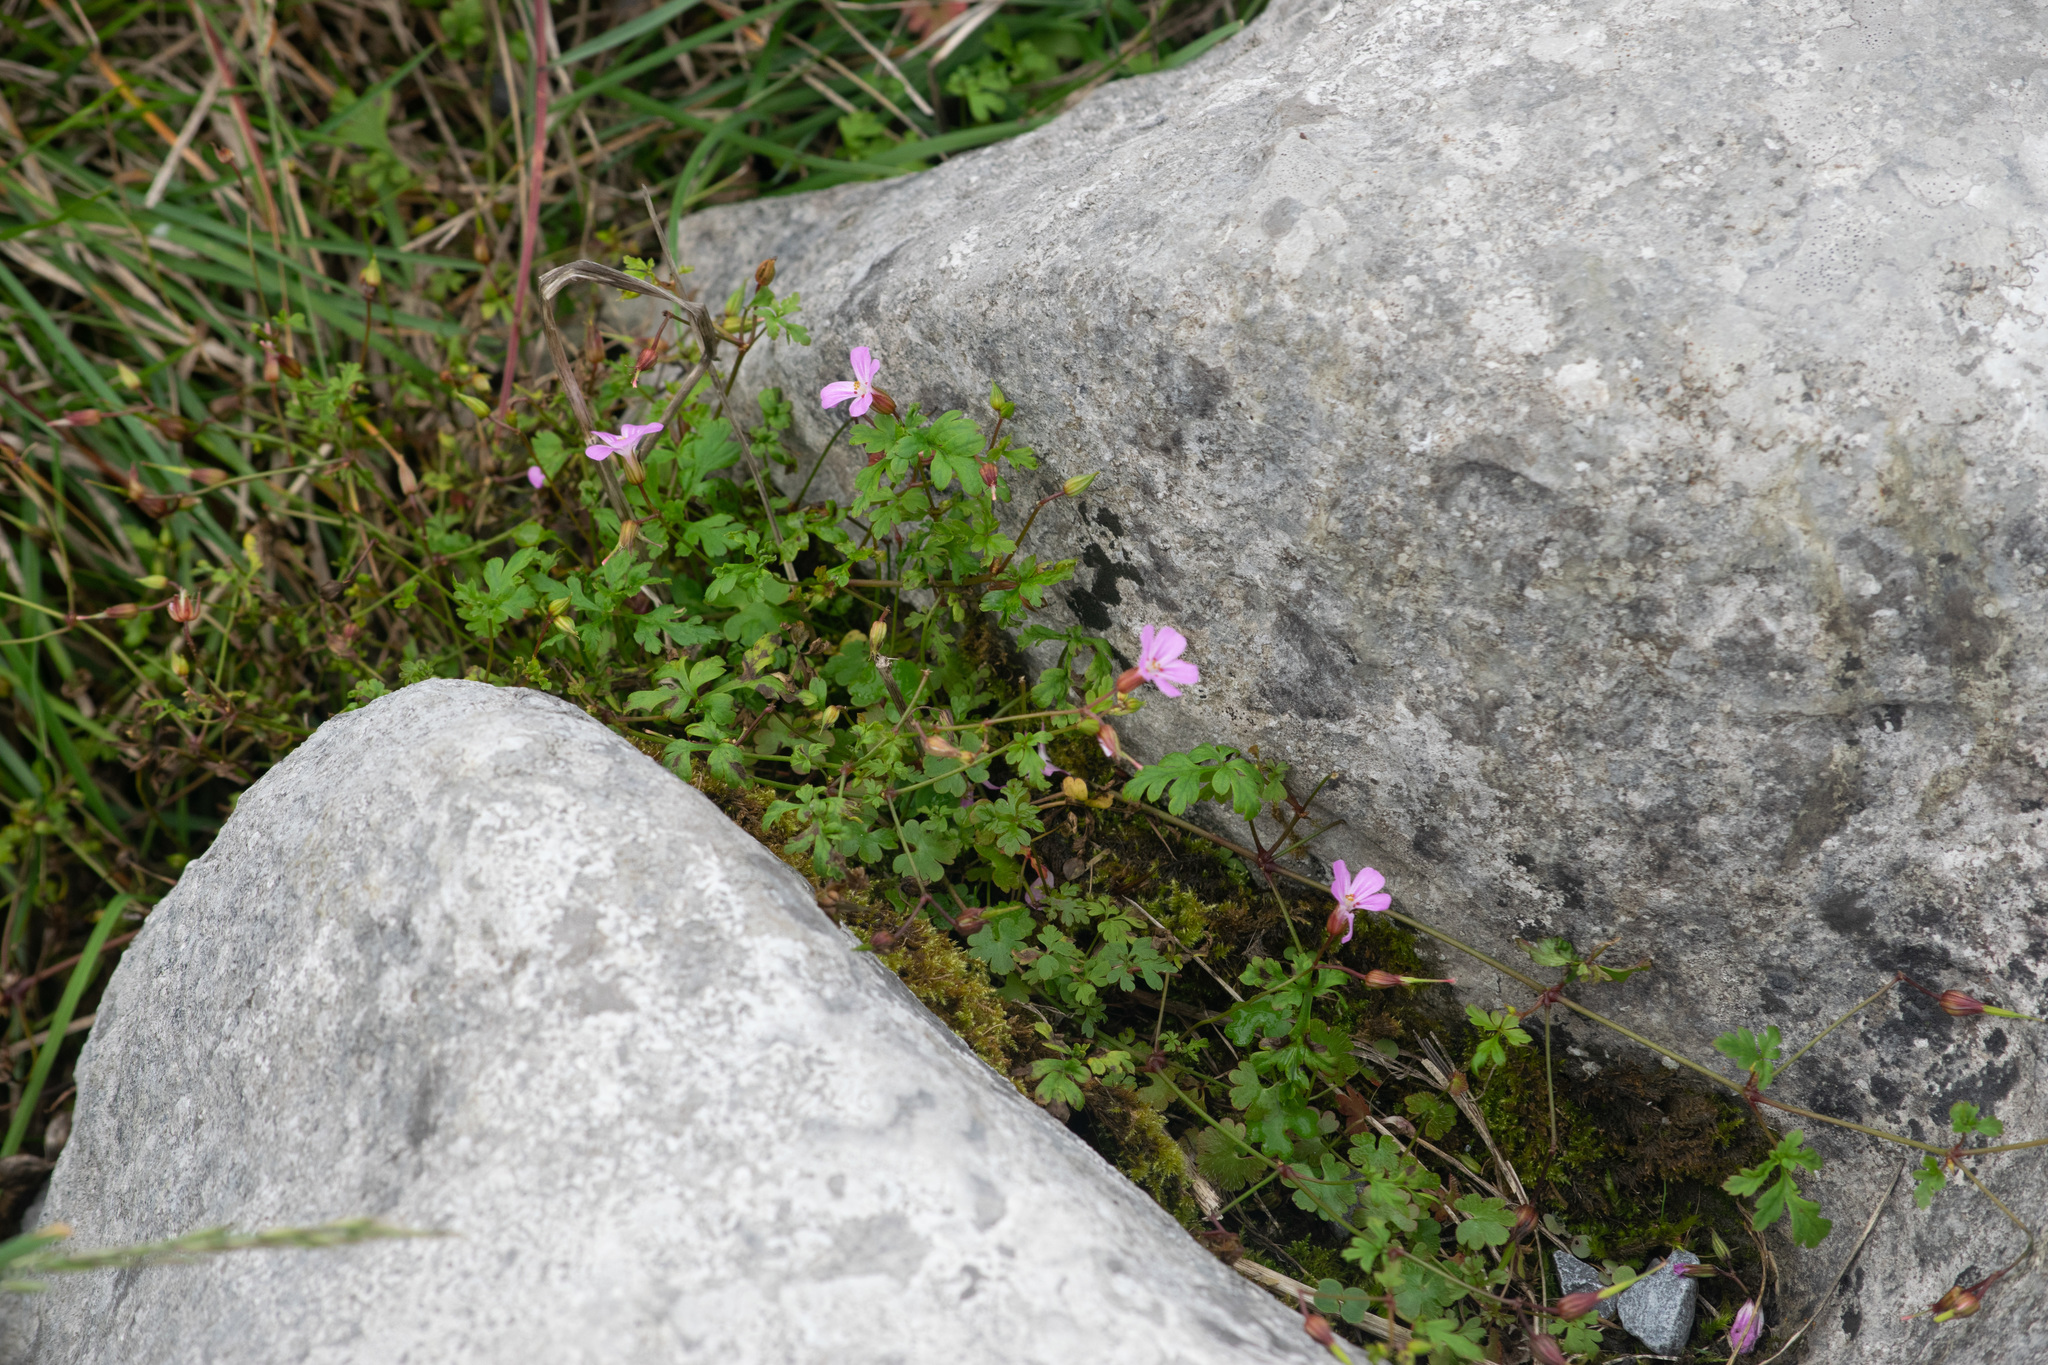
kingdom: Plantae
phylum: Tracheophyta
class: Magnoliopsida
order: Geraniales
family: Geraniaceae
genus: Geranium
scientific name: Geranium robertianum
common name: Herb-robert
